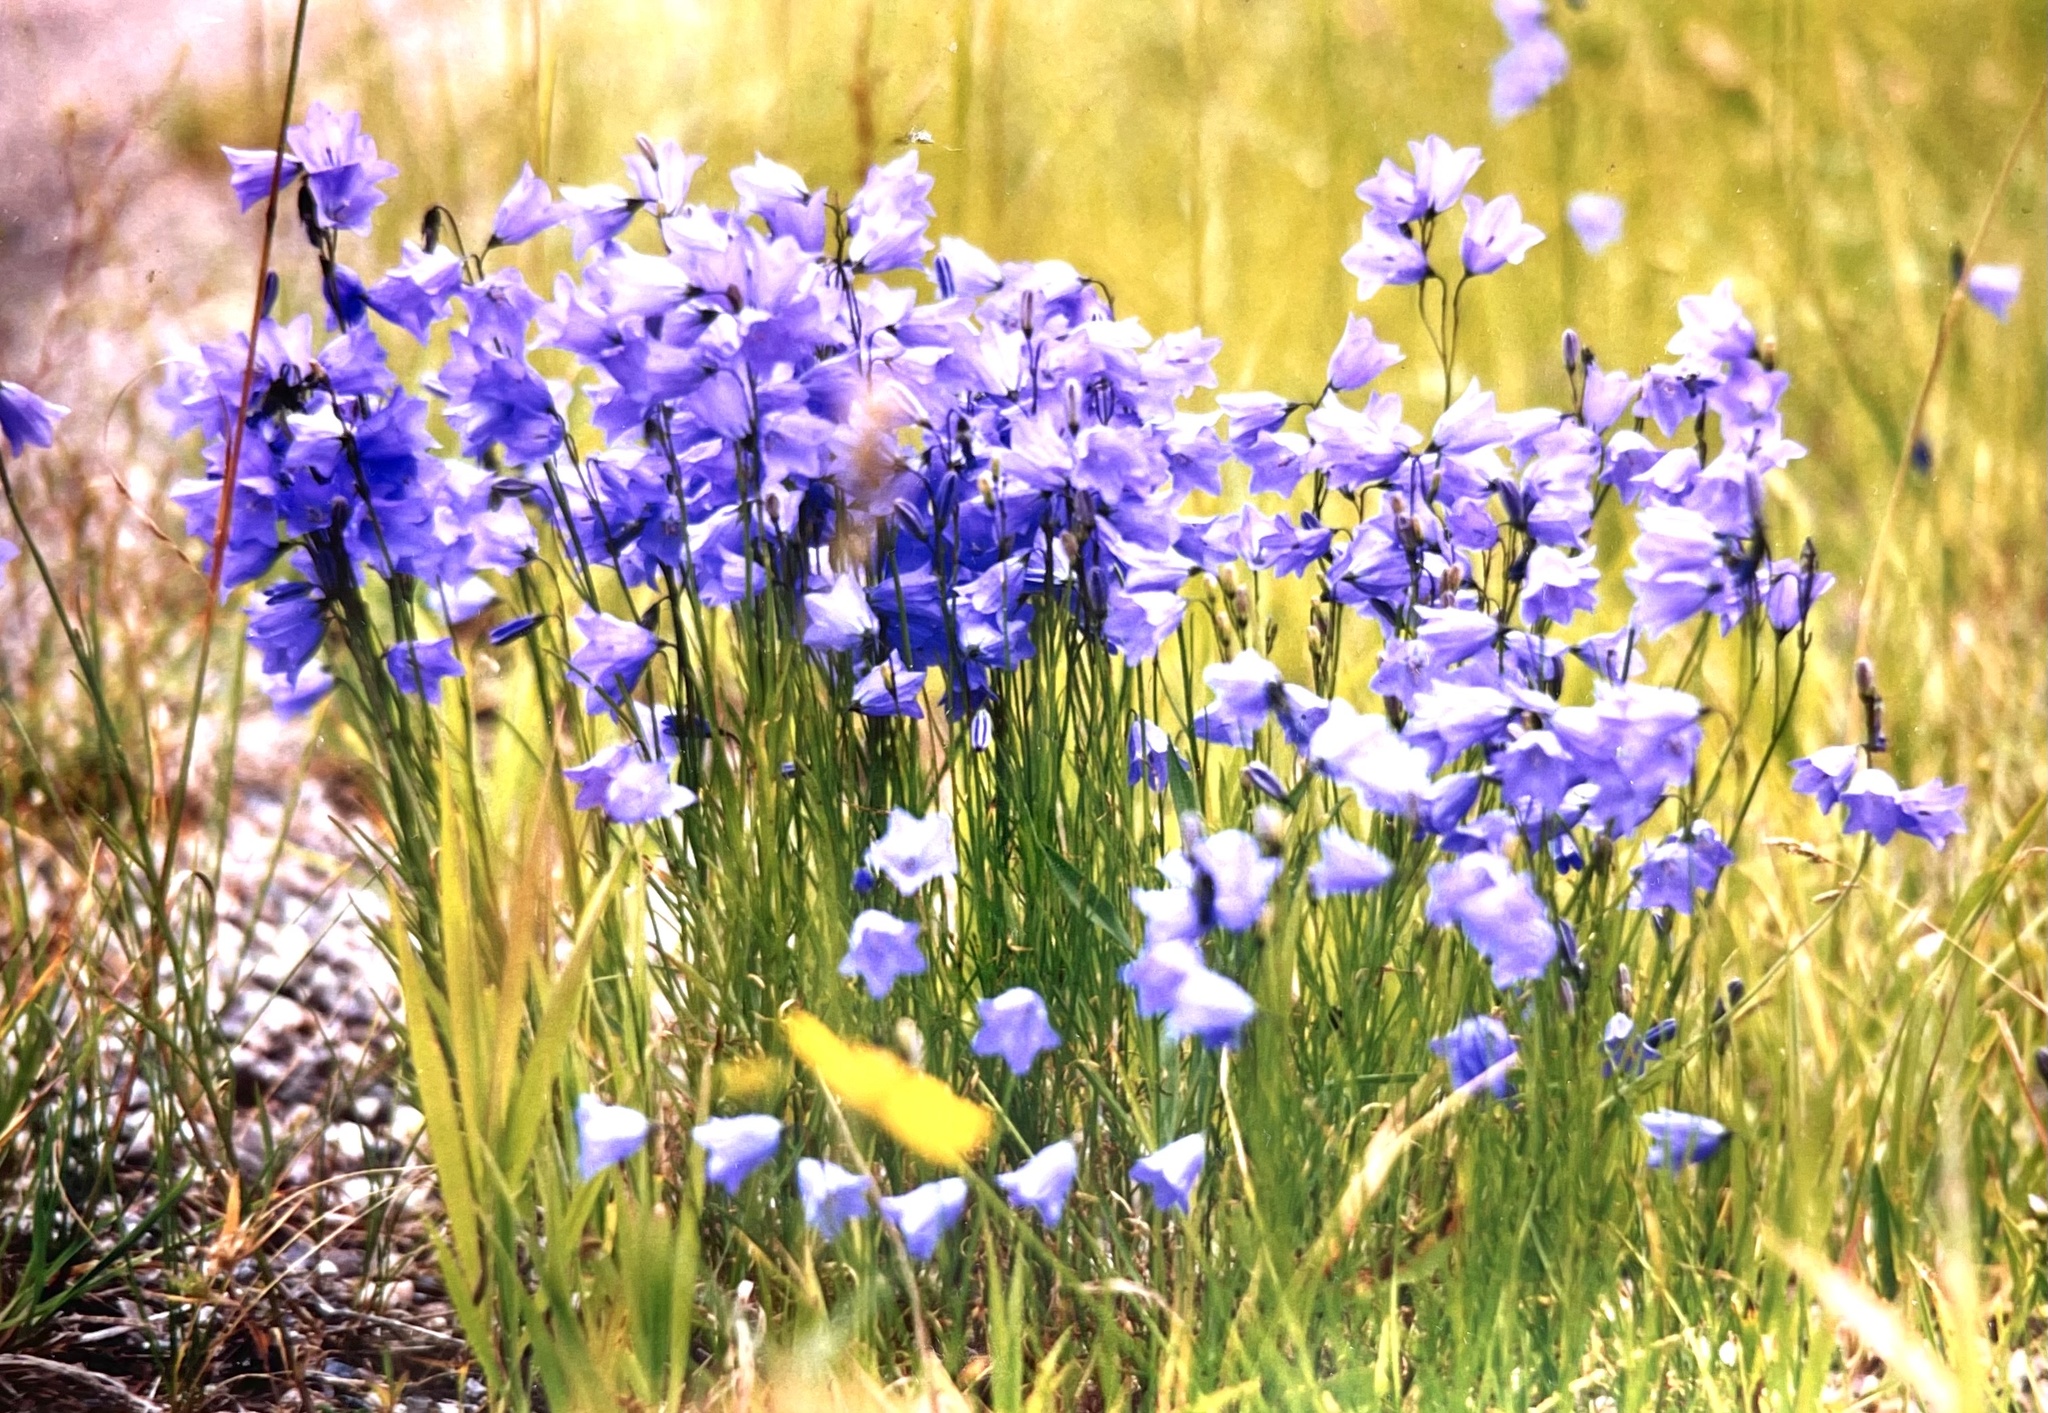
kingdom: Plantae
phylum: Tracheophyta
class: Magnoliopsida
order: Asterales
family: Campanulaceae
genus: Campanula
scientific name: Campanula petiolata
